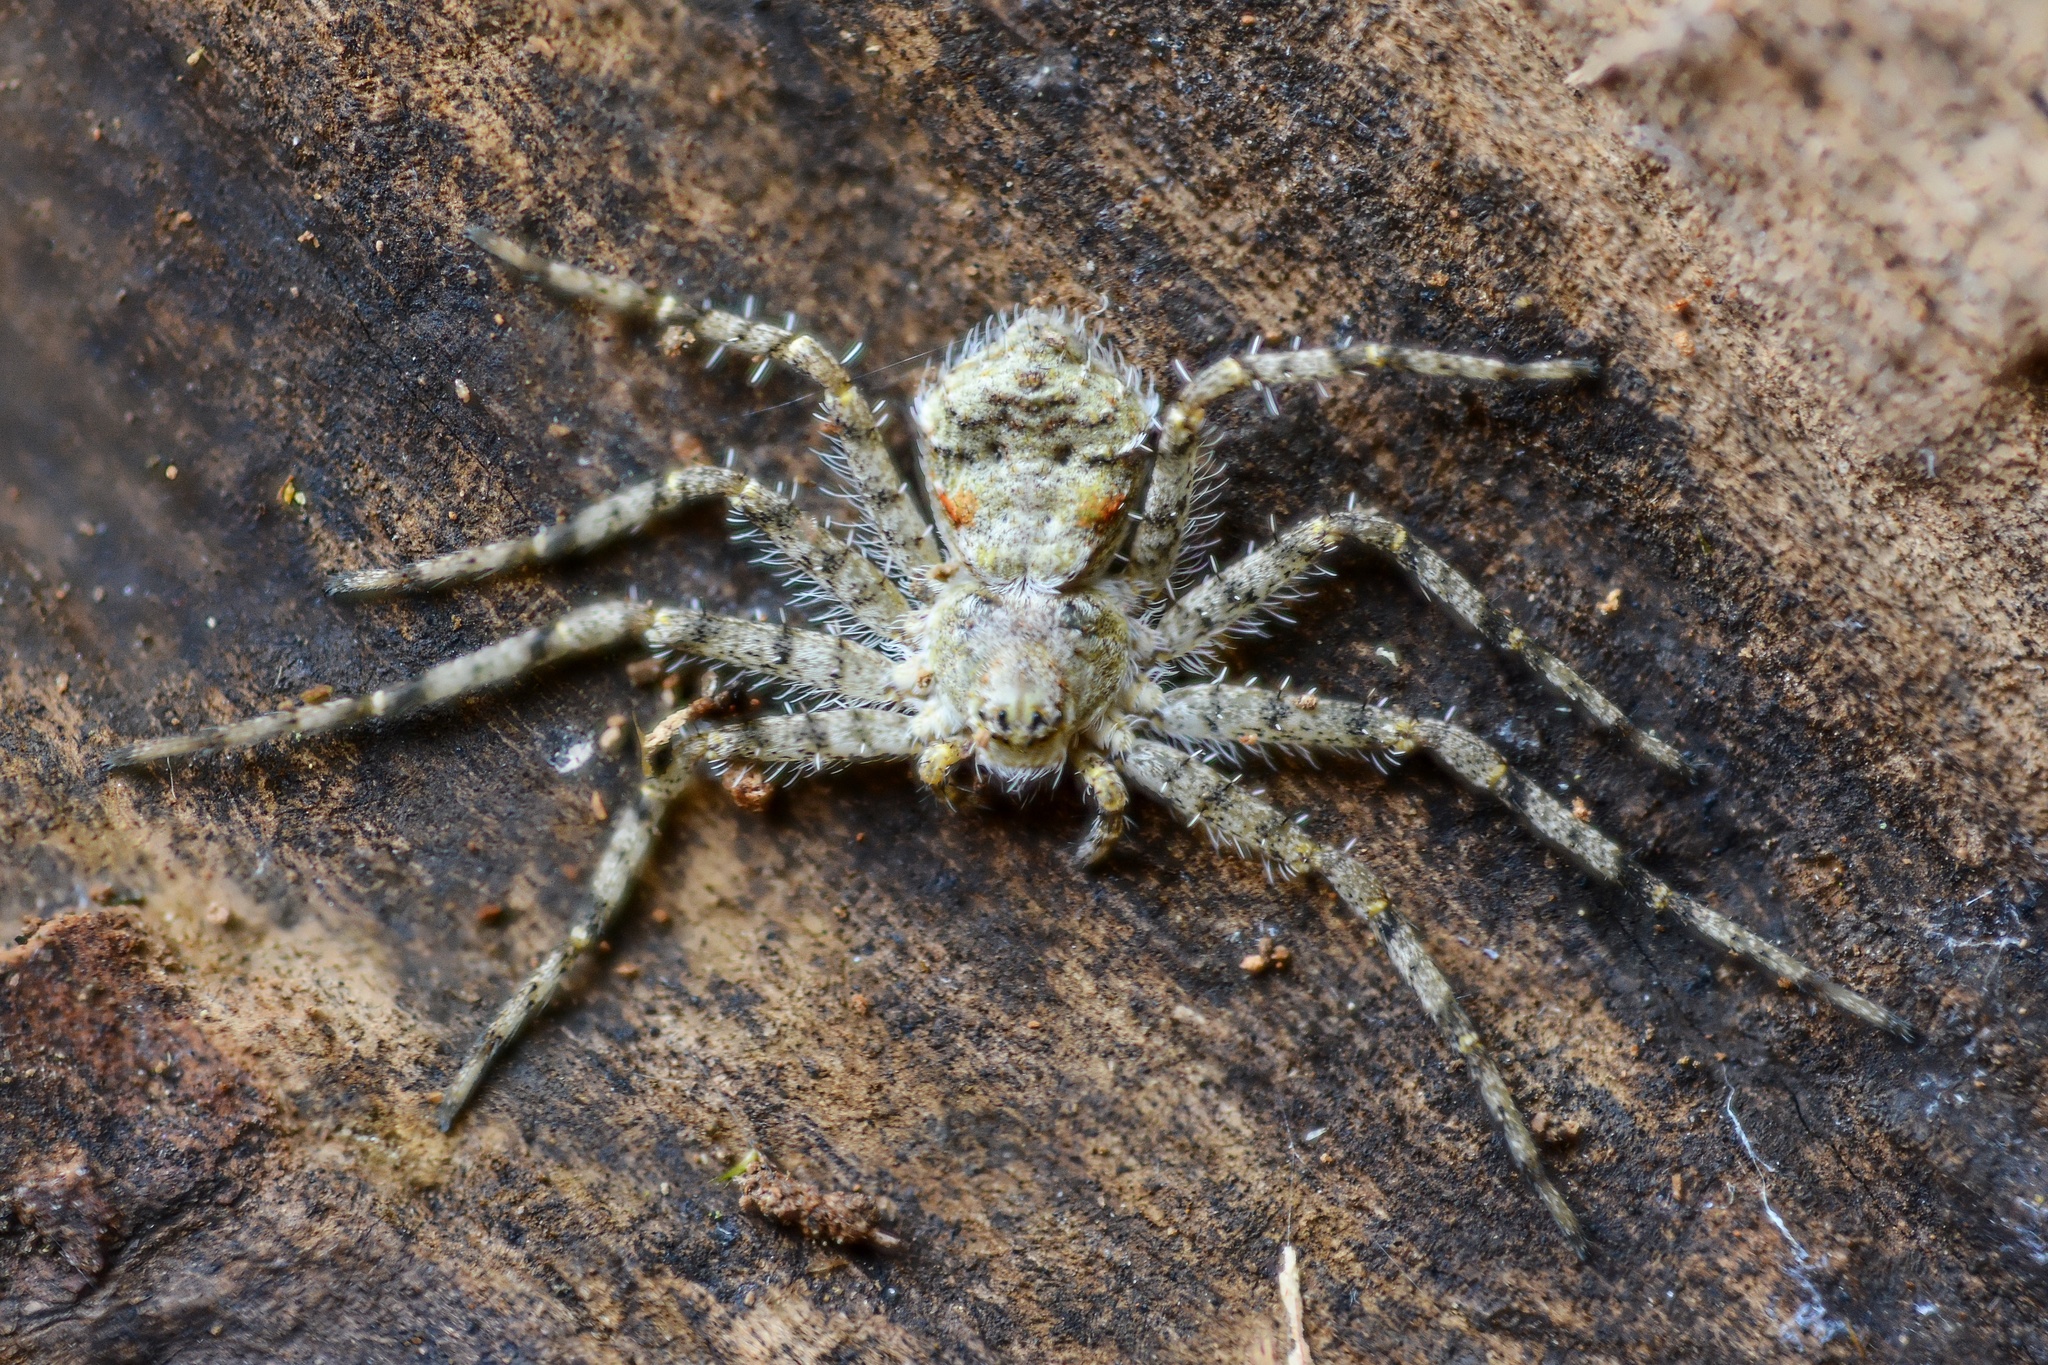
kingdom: Animalia
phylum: Arthropoda
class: Arachnida
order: Araneae
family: Philodromidae
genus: Philodromus
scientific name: Philodromus margaritatus
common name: Lichen running-spider
